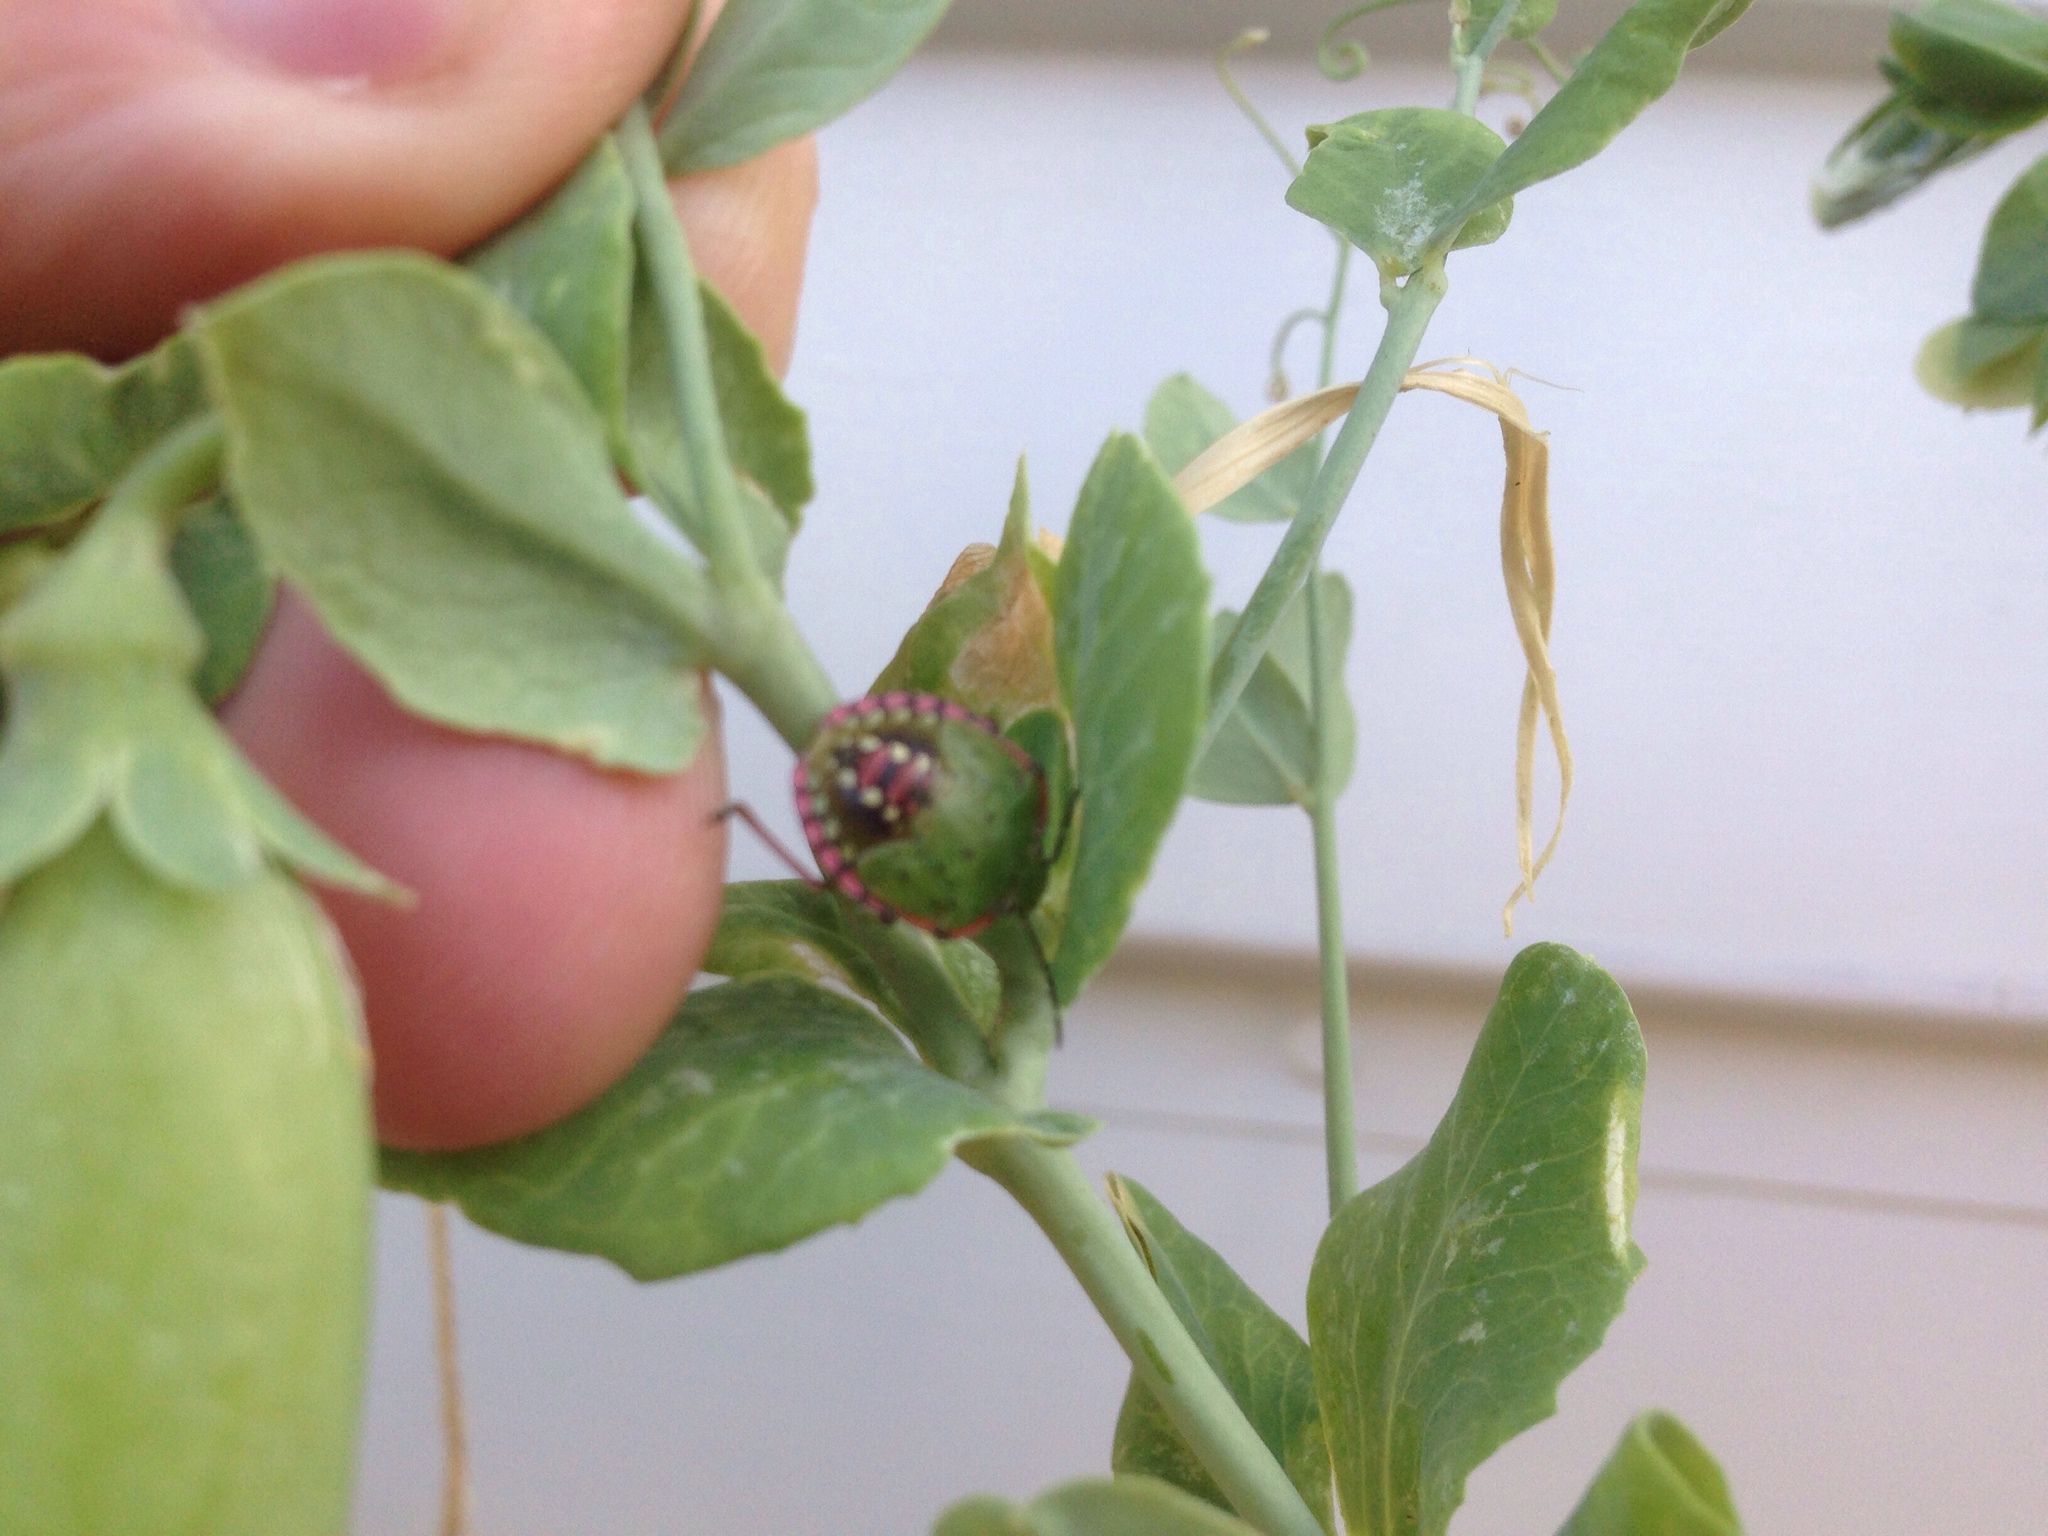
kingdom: Animalia
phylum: Arthropoda
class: Insecta
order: Hemiptera
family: Pentatomidae
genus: Nezara
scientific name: Nezara viridula
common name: Southern green stink bug
